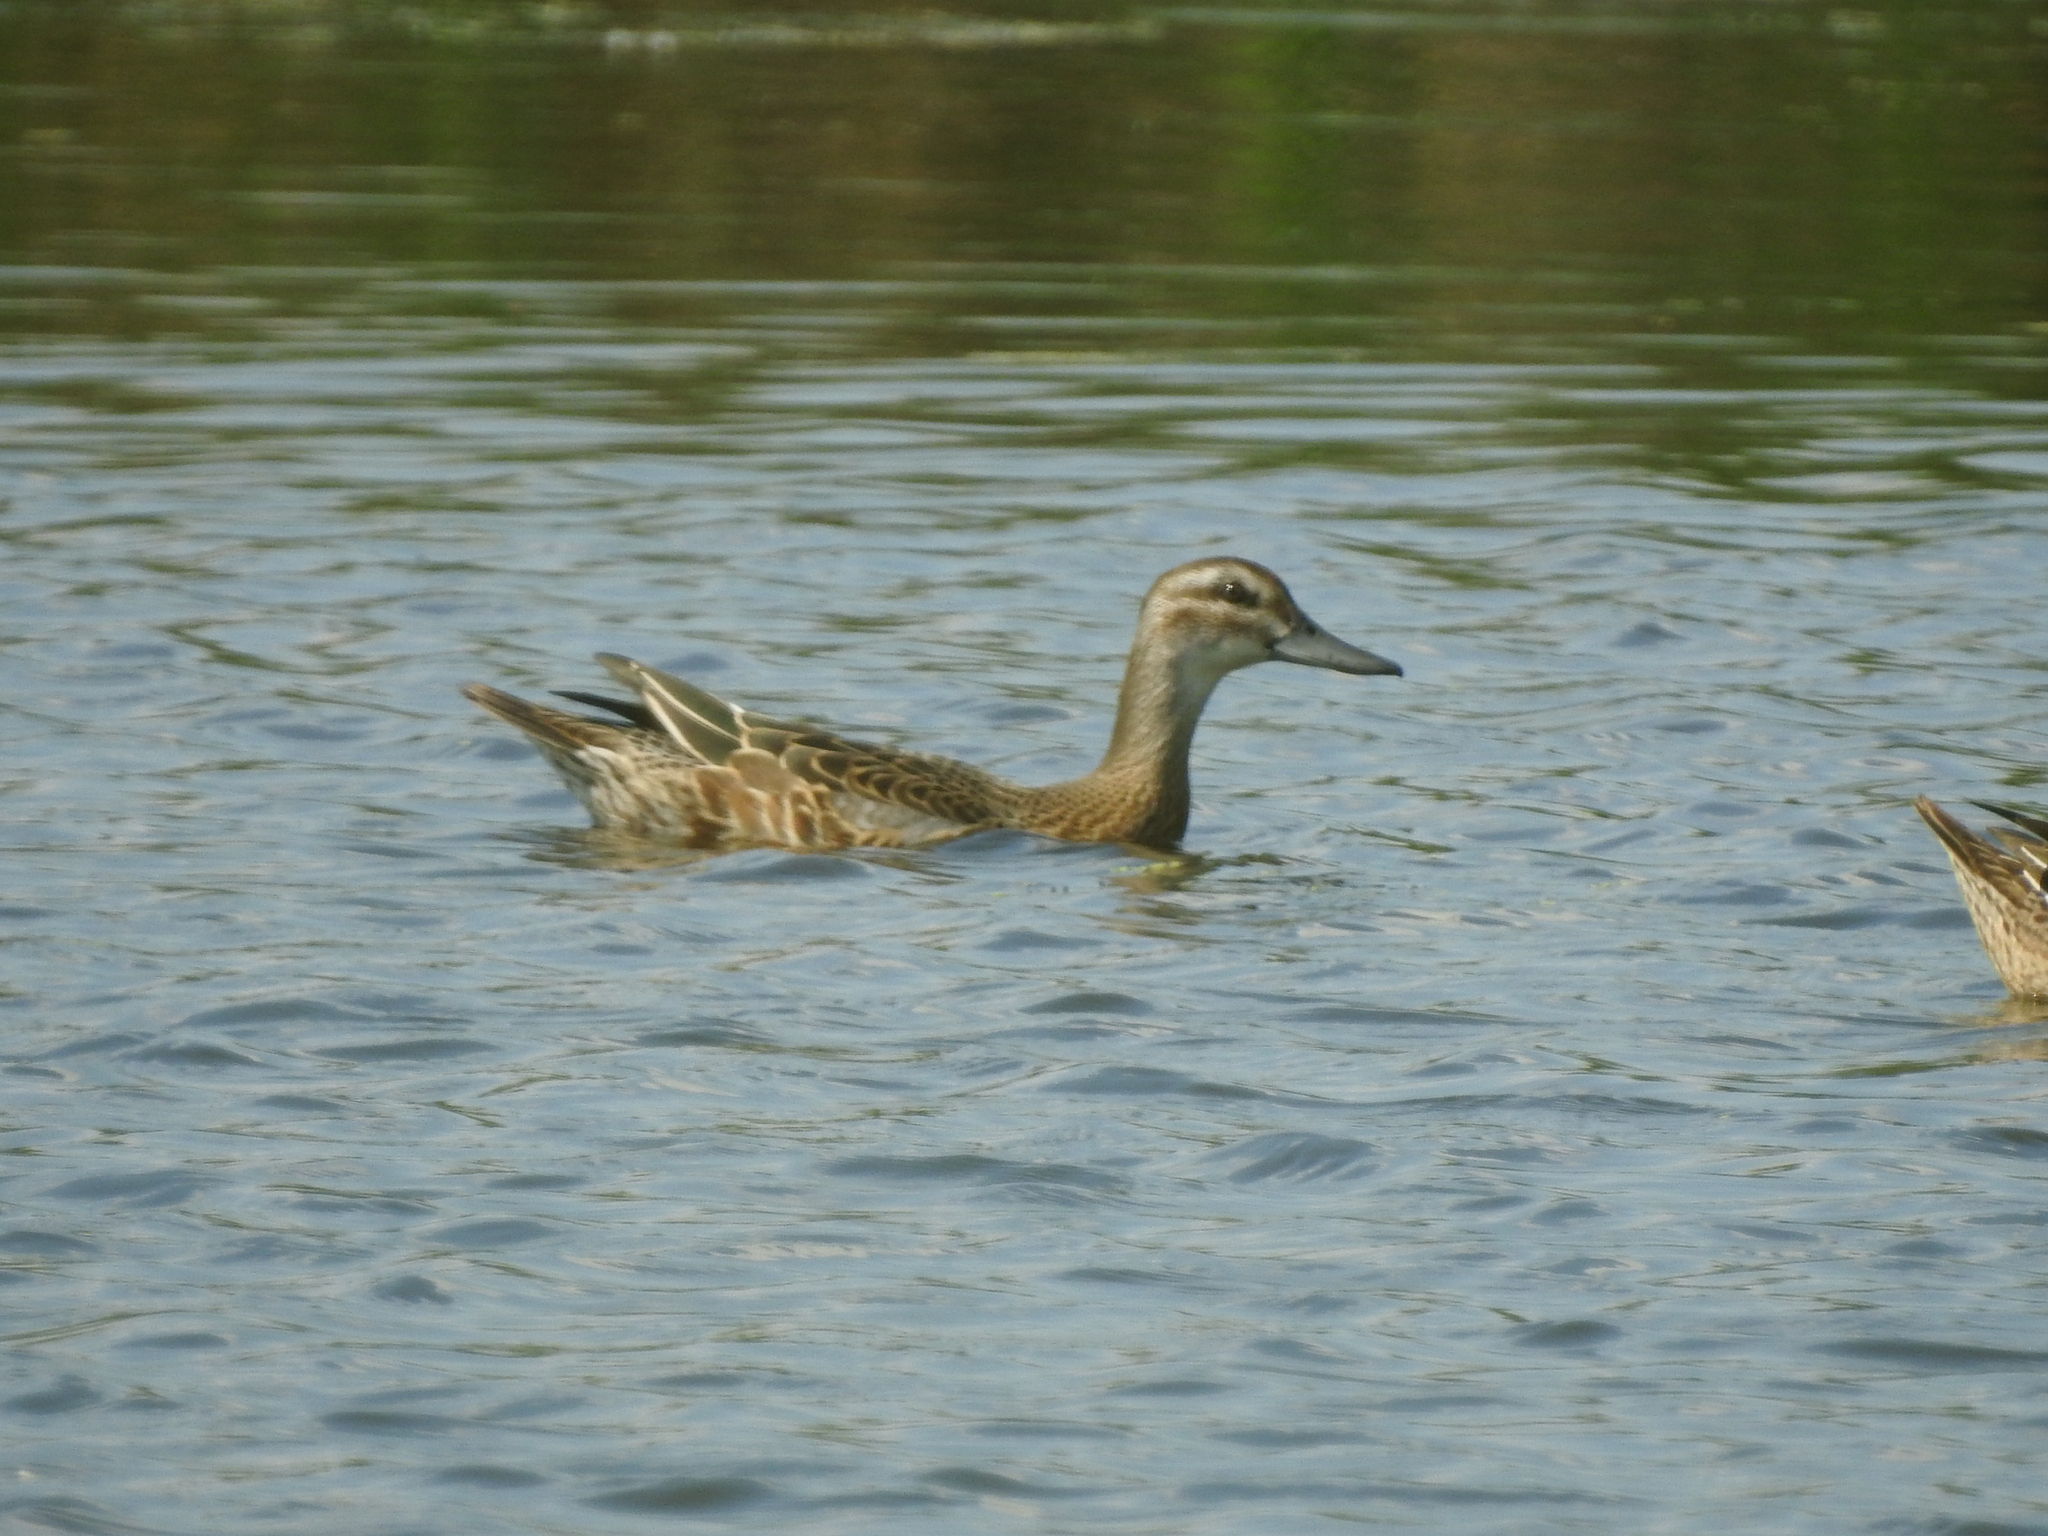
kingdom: Animalia
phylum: Chordata
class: Aves
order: Anseriformes
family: Anatidae
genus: Spatula
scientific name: Spatula querquedula
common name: Garganey
